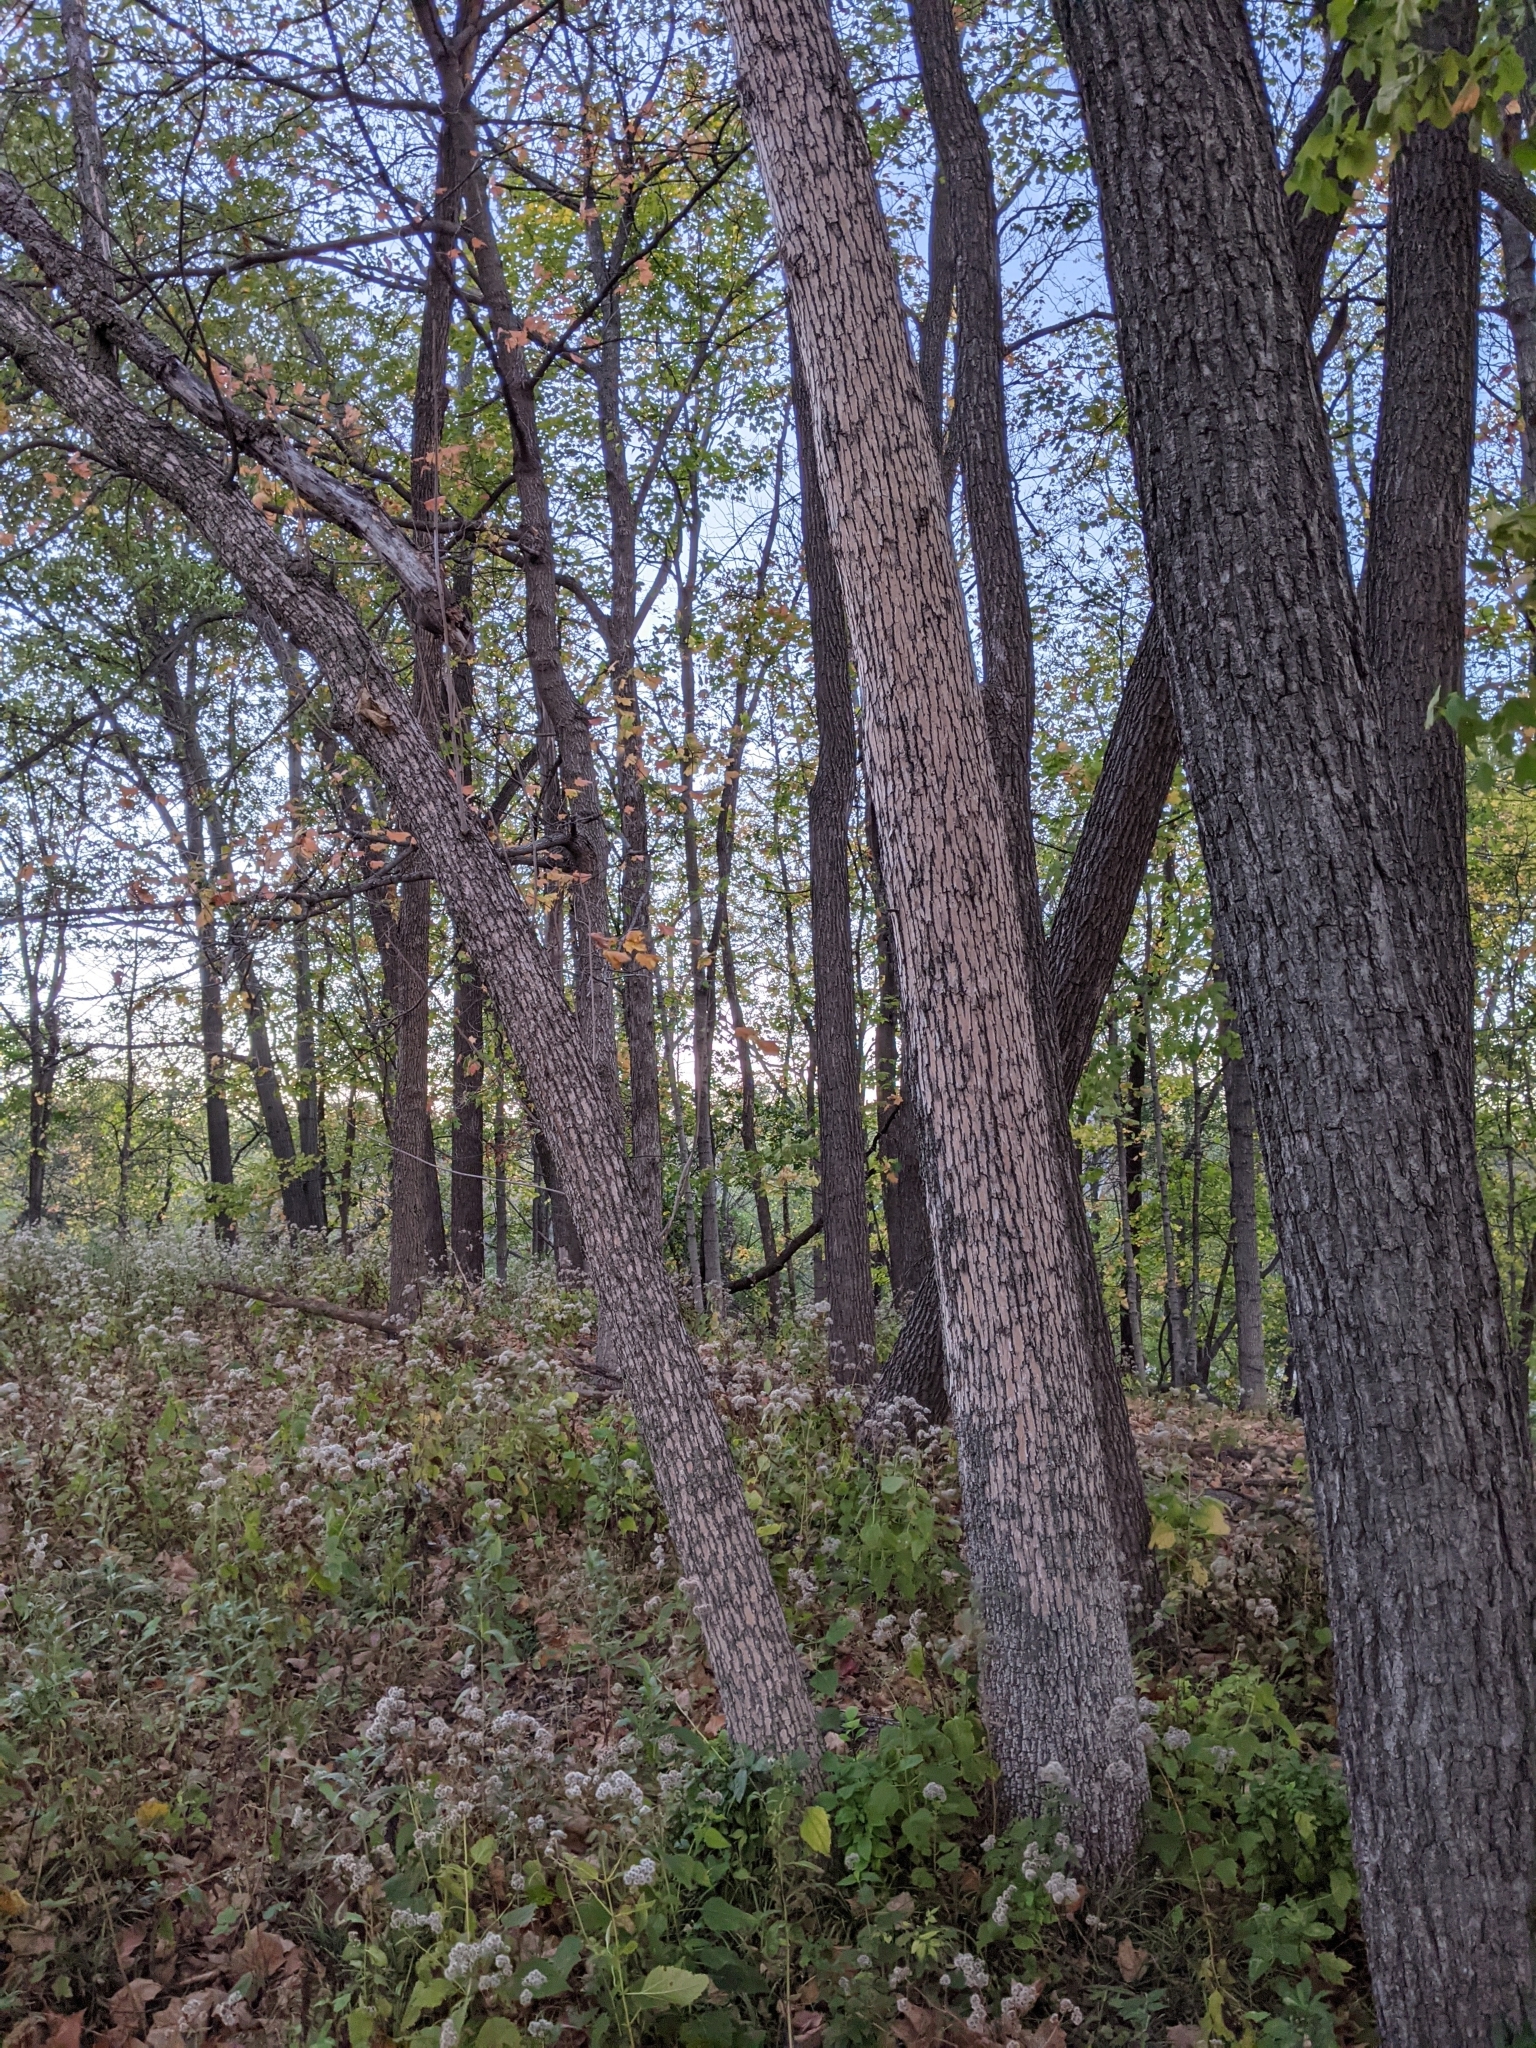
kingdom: Animalia
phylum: Arthropoda
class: Insecta
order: Coleoptera
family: Buprestidae
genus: Agrilus
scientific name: Agrilus planipennis
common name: Emerald ash borer
